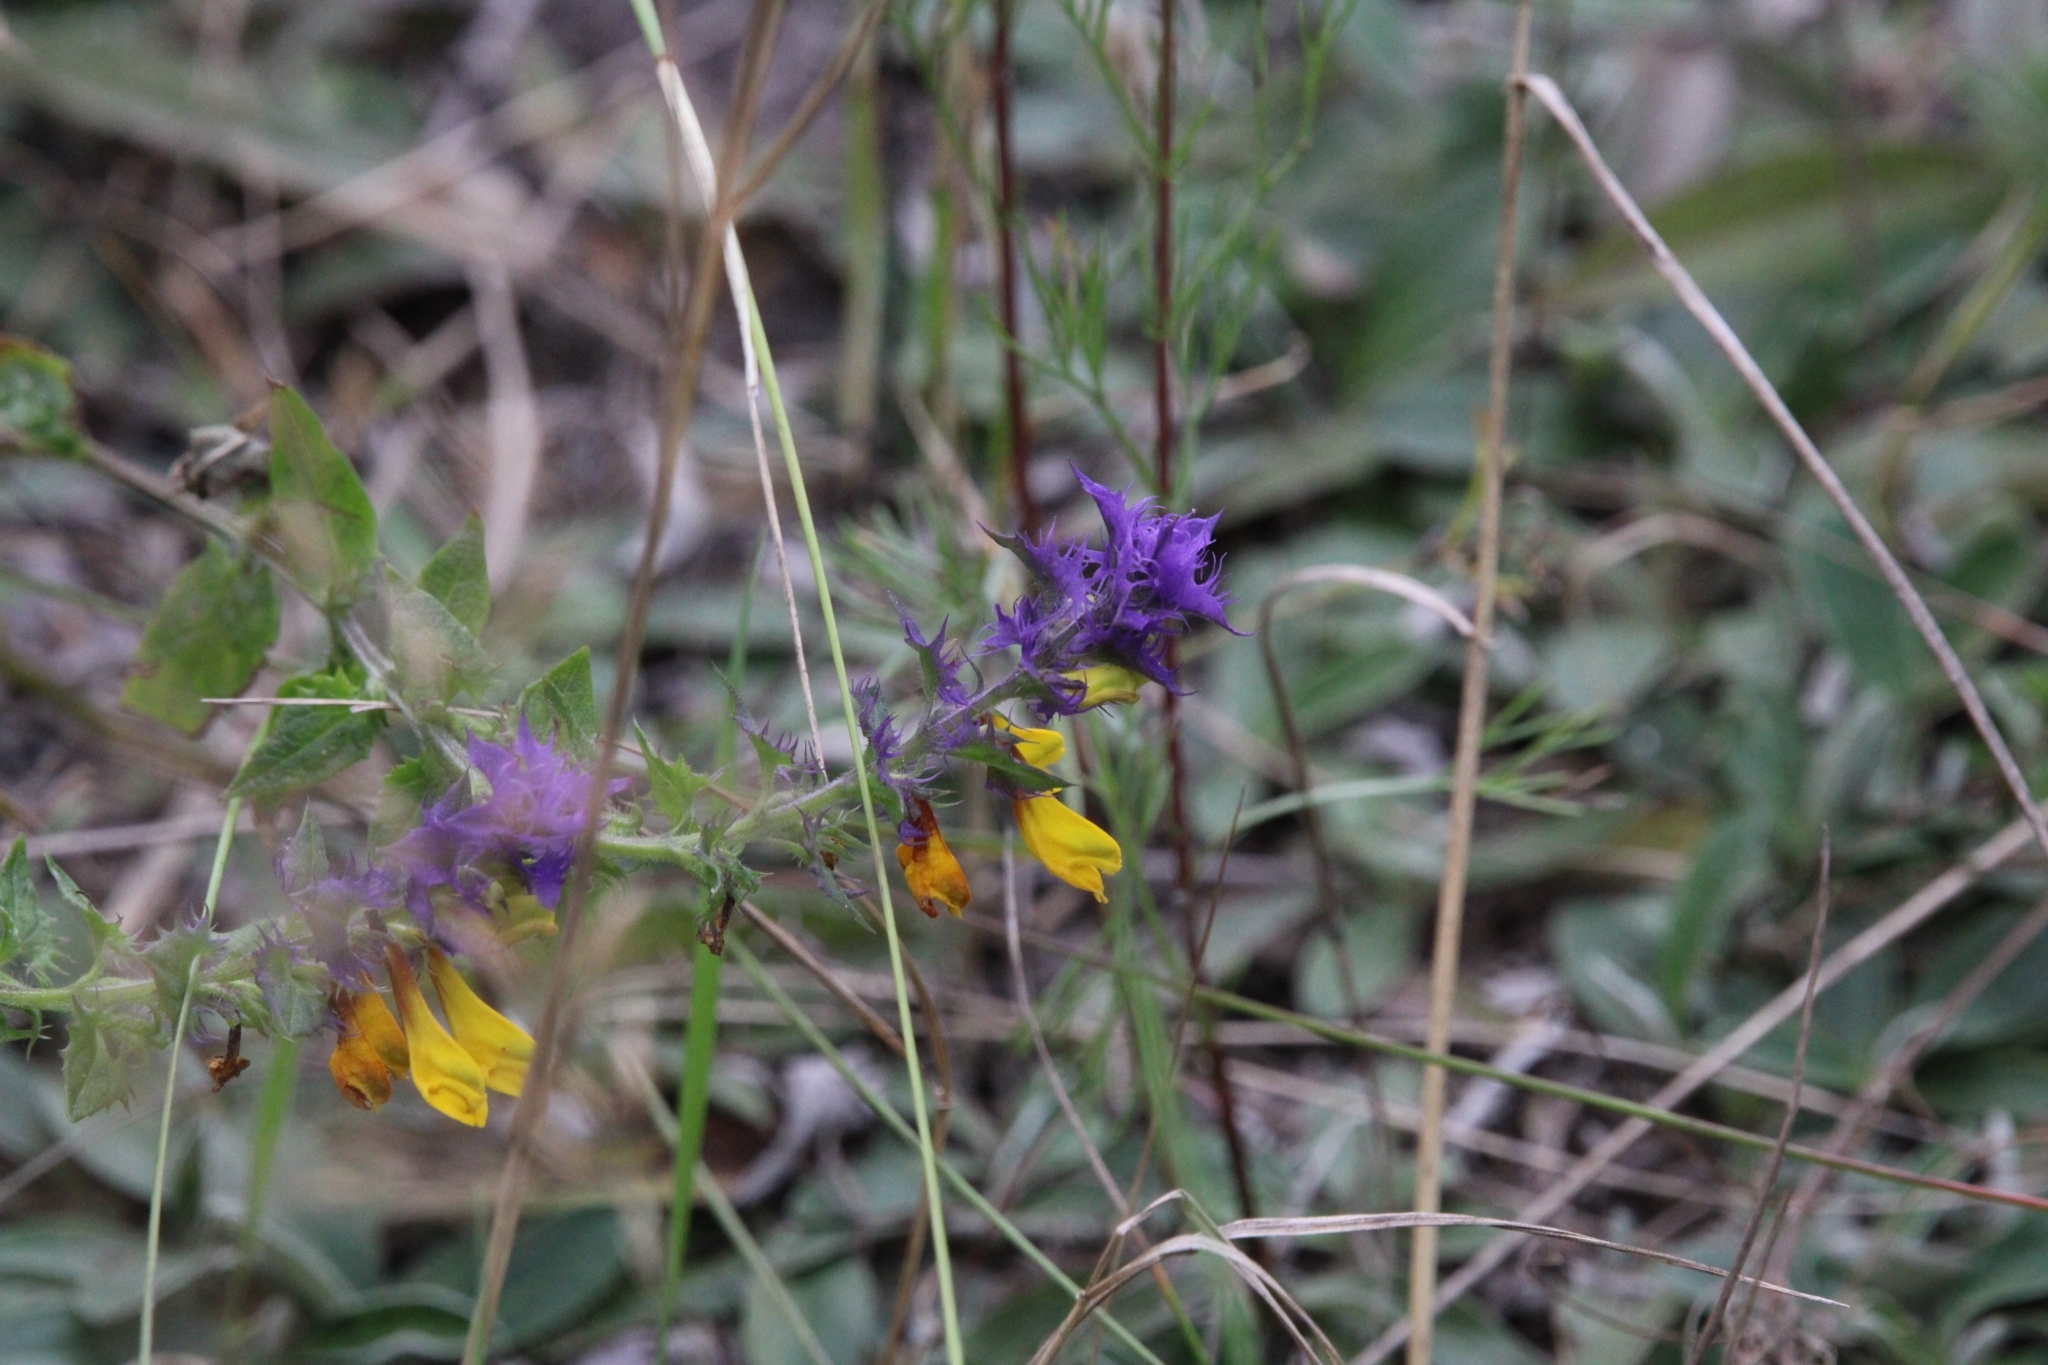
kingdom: Plantae
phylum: Tracheophyta
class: Magnoliopsida
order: Lamiales
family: Orobanchaceae
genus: Melampyrum
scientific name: Melampyrum nemorosum
